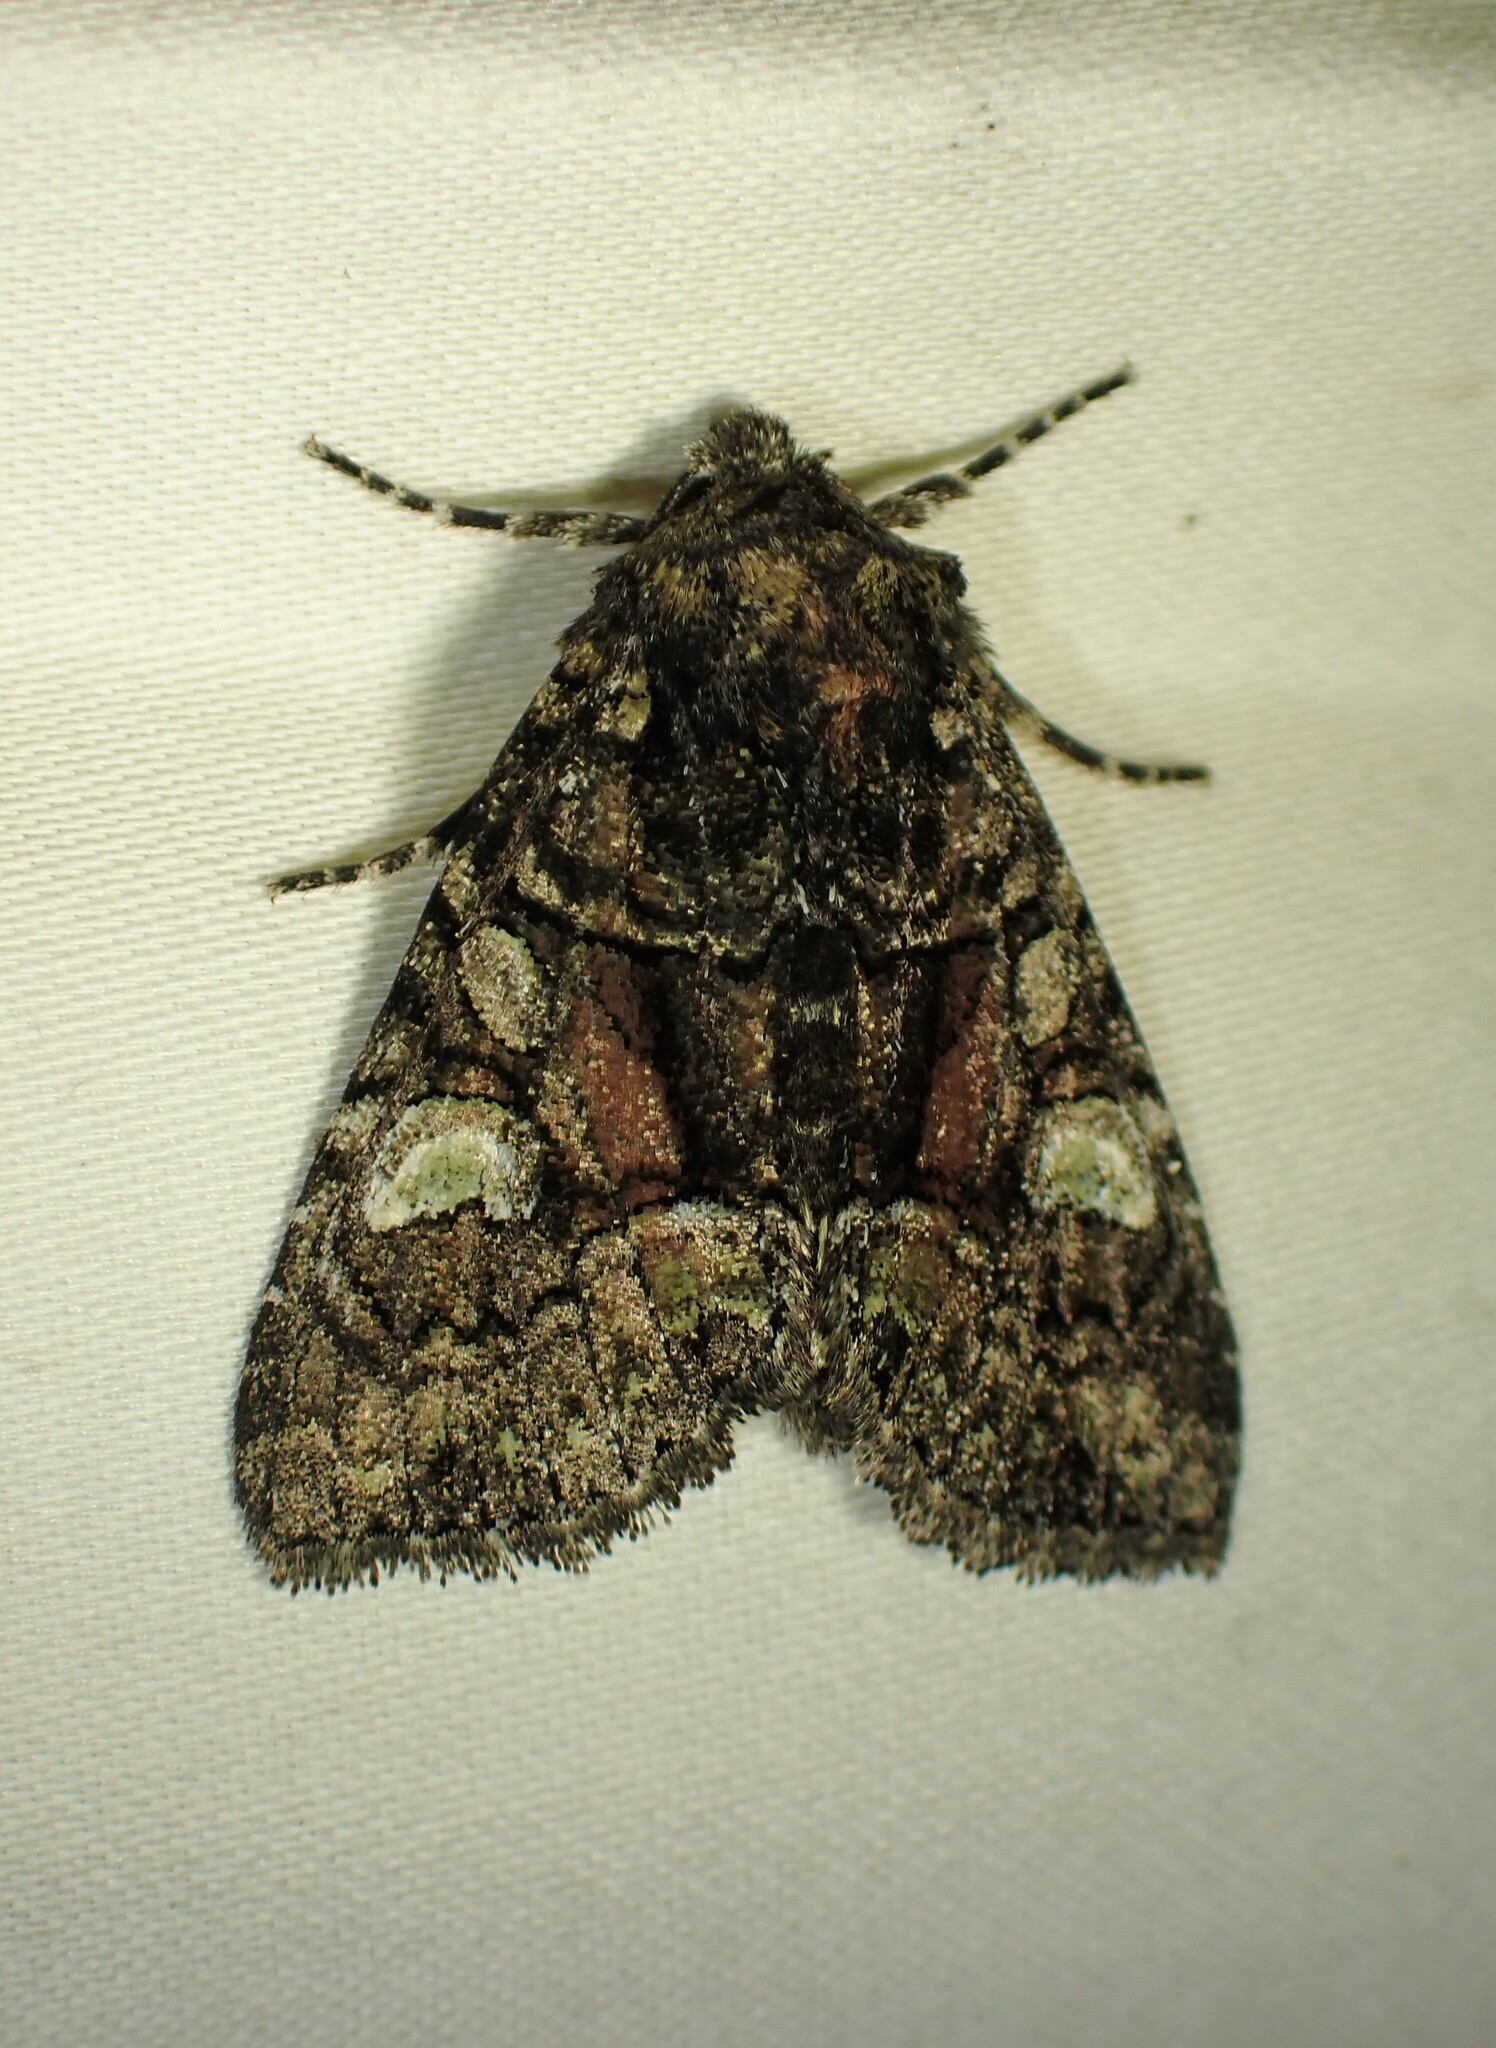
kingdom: Animalia
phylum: Arthropoda
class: Insecta
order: Lepidoptera
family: Noctuidae
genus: Fishia
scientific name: Fishia illocata
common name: Wandering brocade moth
